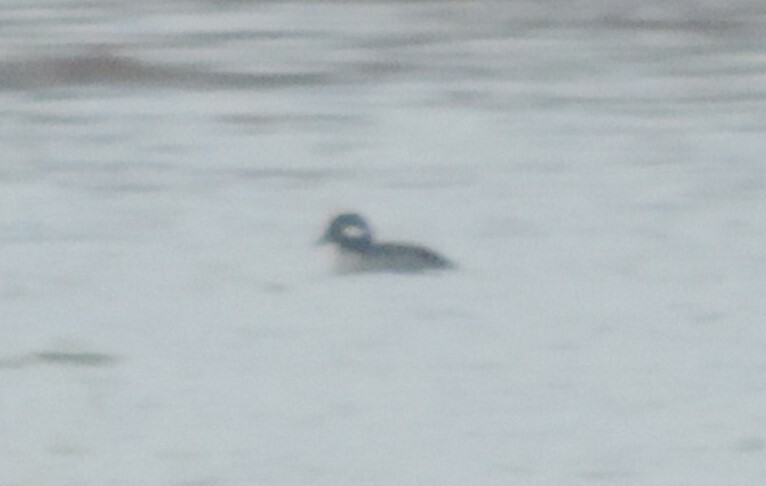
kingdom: Animalia
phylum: Chordata
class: Aves
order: Anseriformes
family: Anatidae
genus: Bucephala
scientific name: Bucephala albeola
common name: Bufflehead
